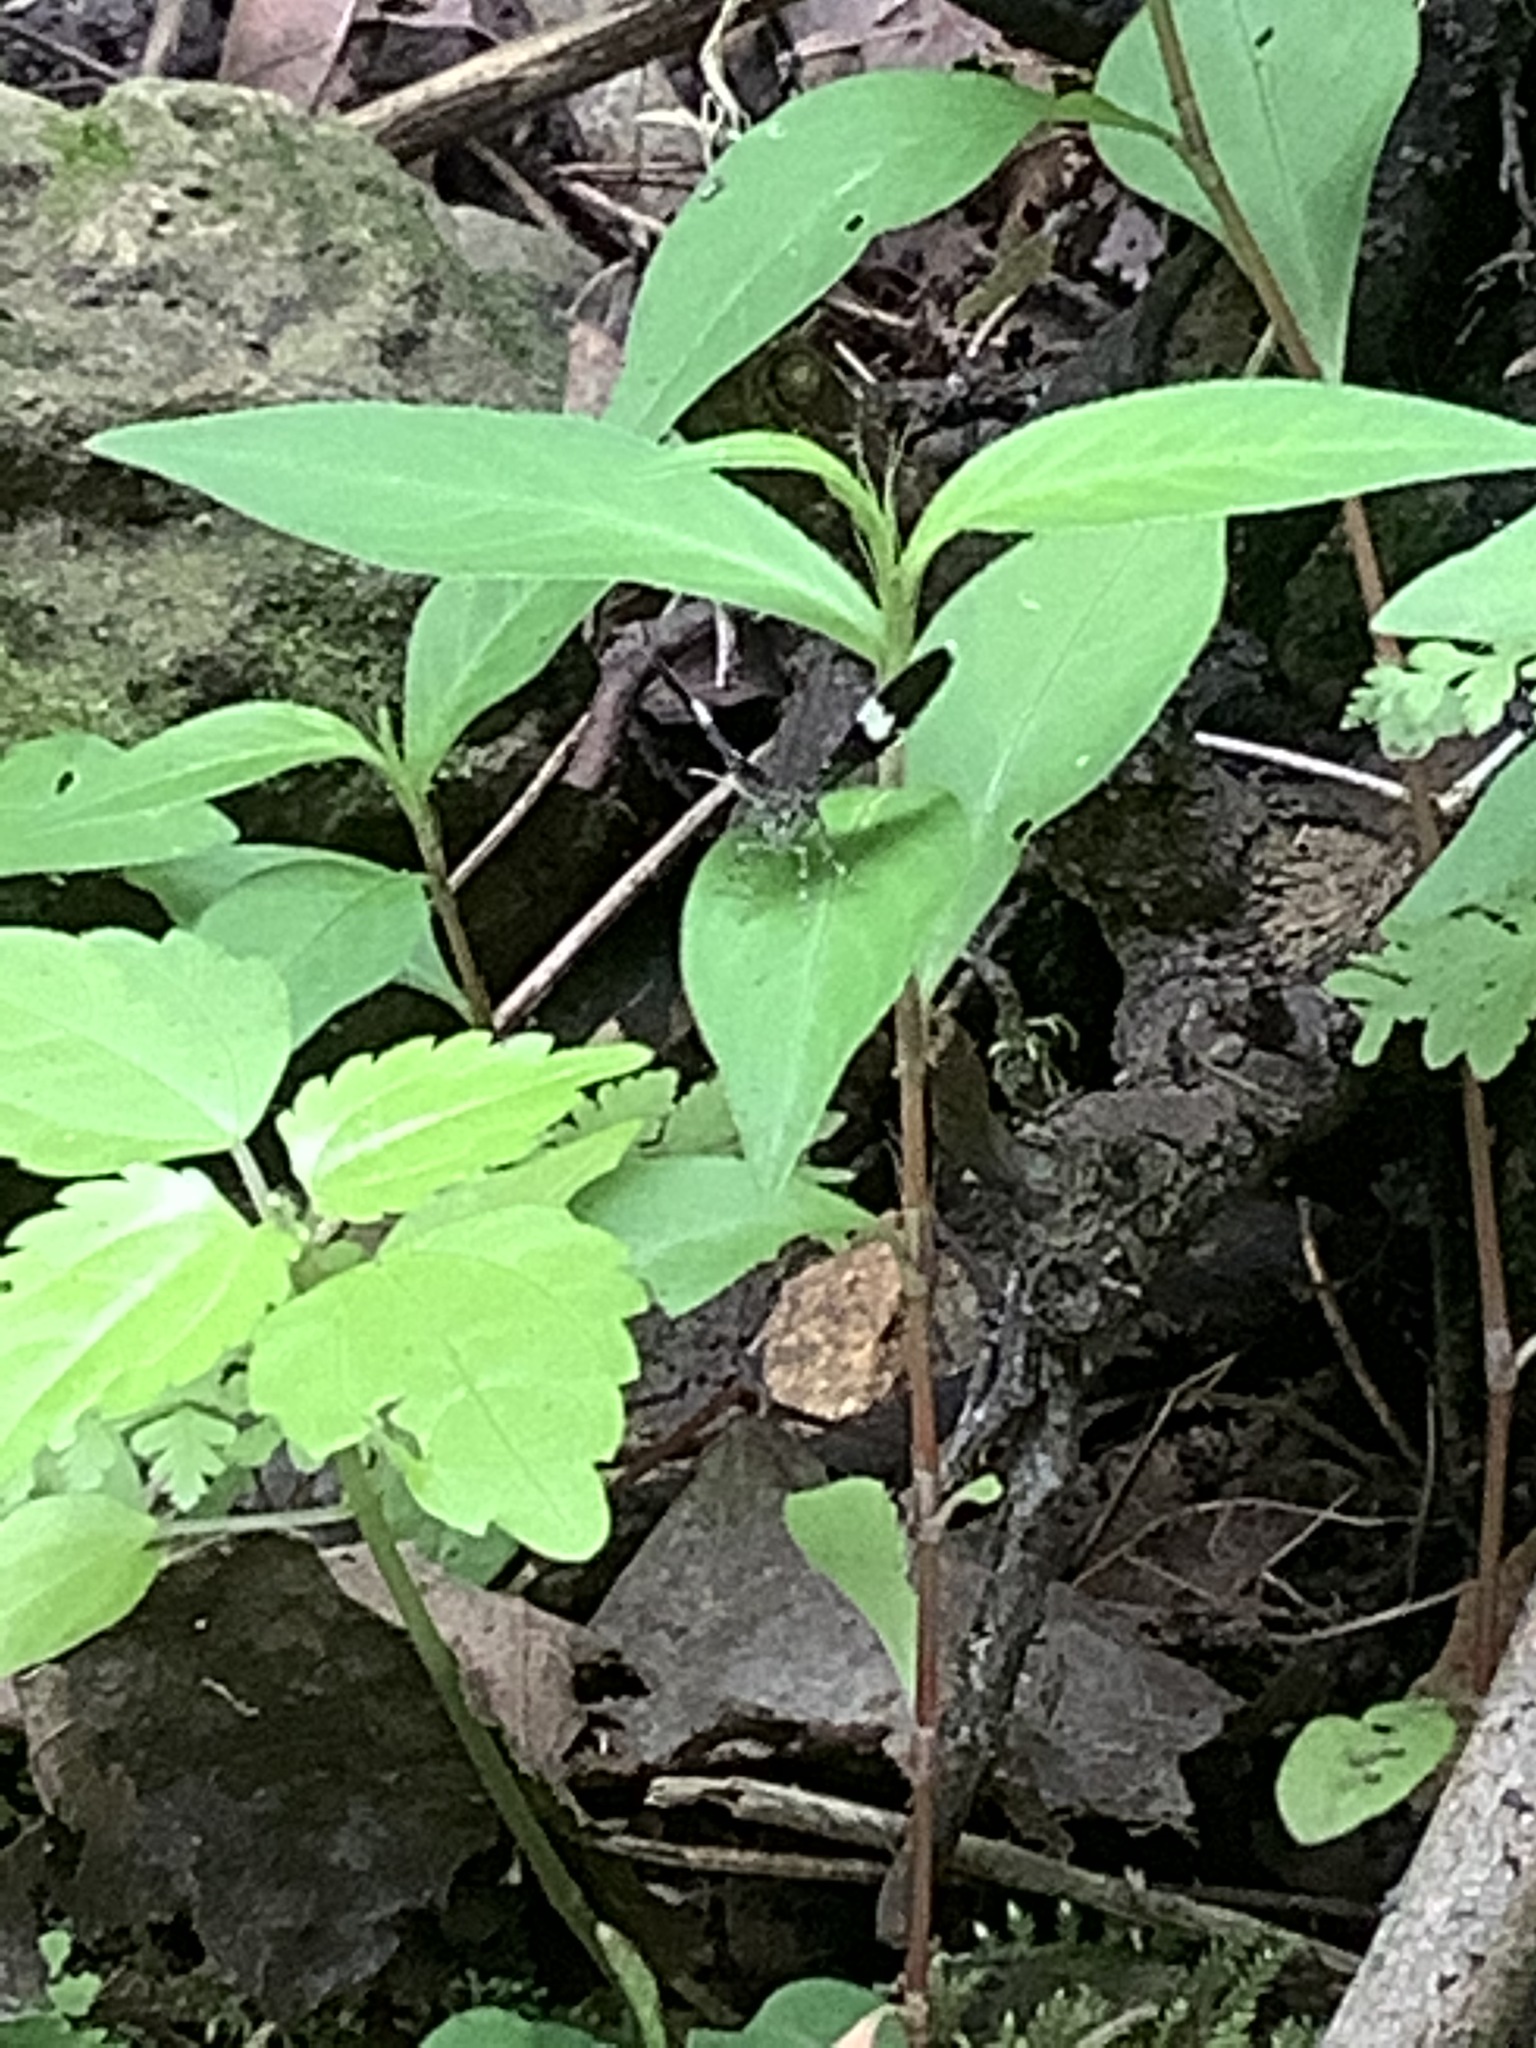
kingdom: Animalia
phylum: Arthropoda
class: Insecta
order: Lepidoptera
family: Geometridae
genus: Trichodezia
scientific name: Trichodezia albovittata
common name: White striped black
